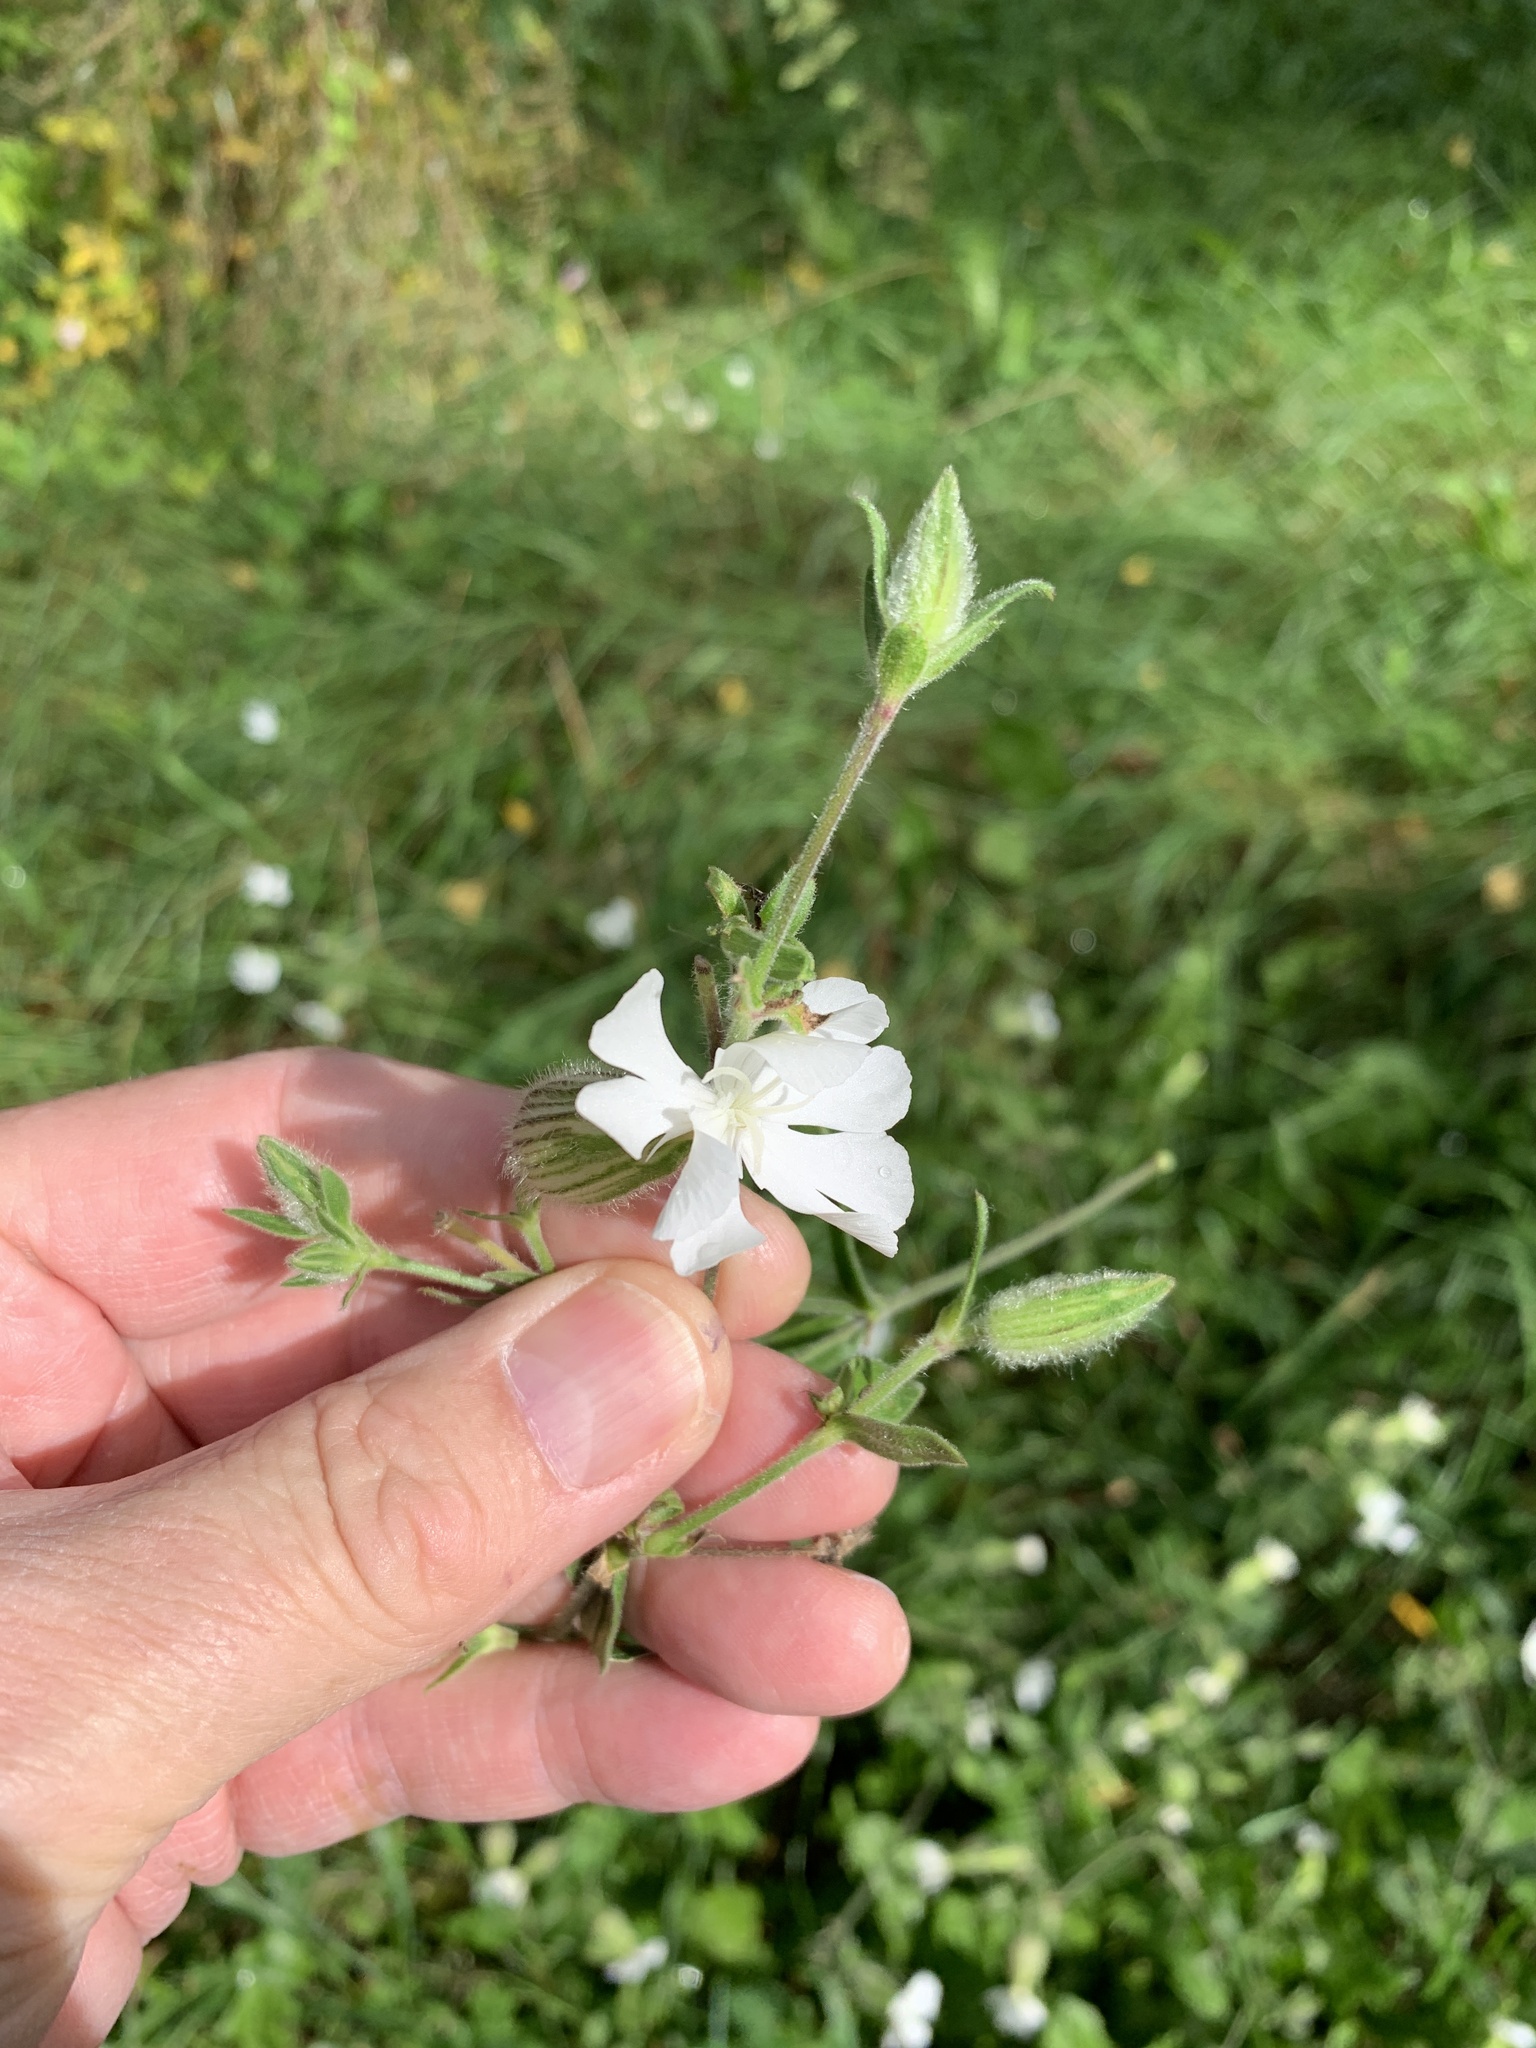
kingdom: Plantae
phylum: Tracheophyta
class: Magnoliopsida
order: Caryophyllales
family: Caryophyllaceae
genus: Silene
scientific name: Silene latifolia
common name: White campion
